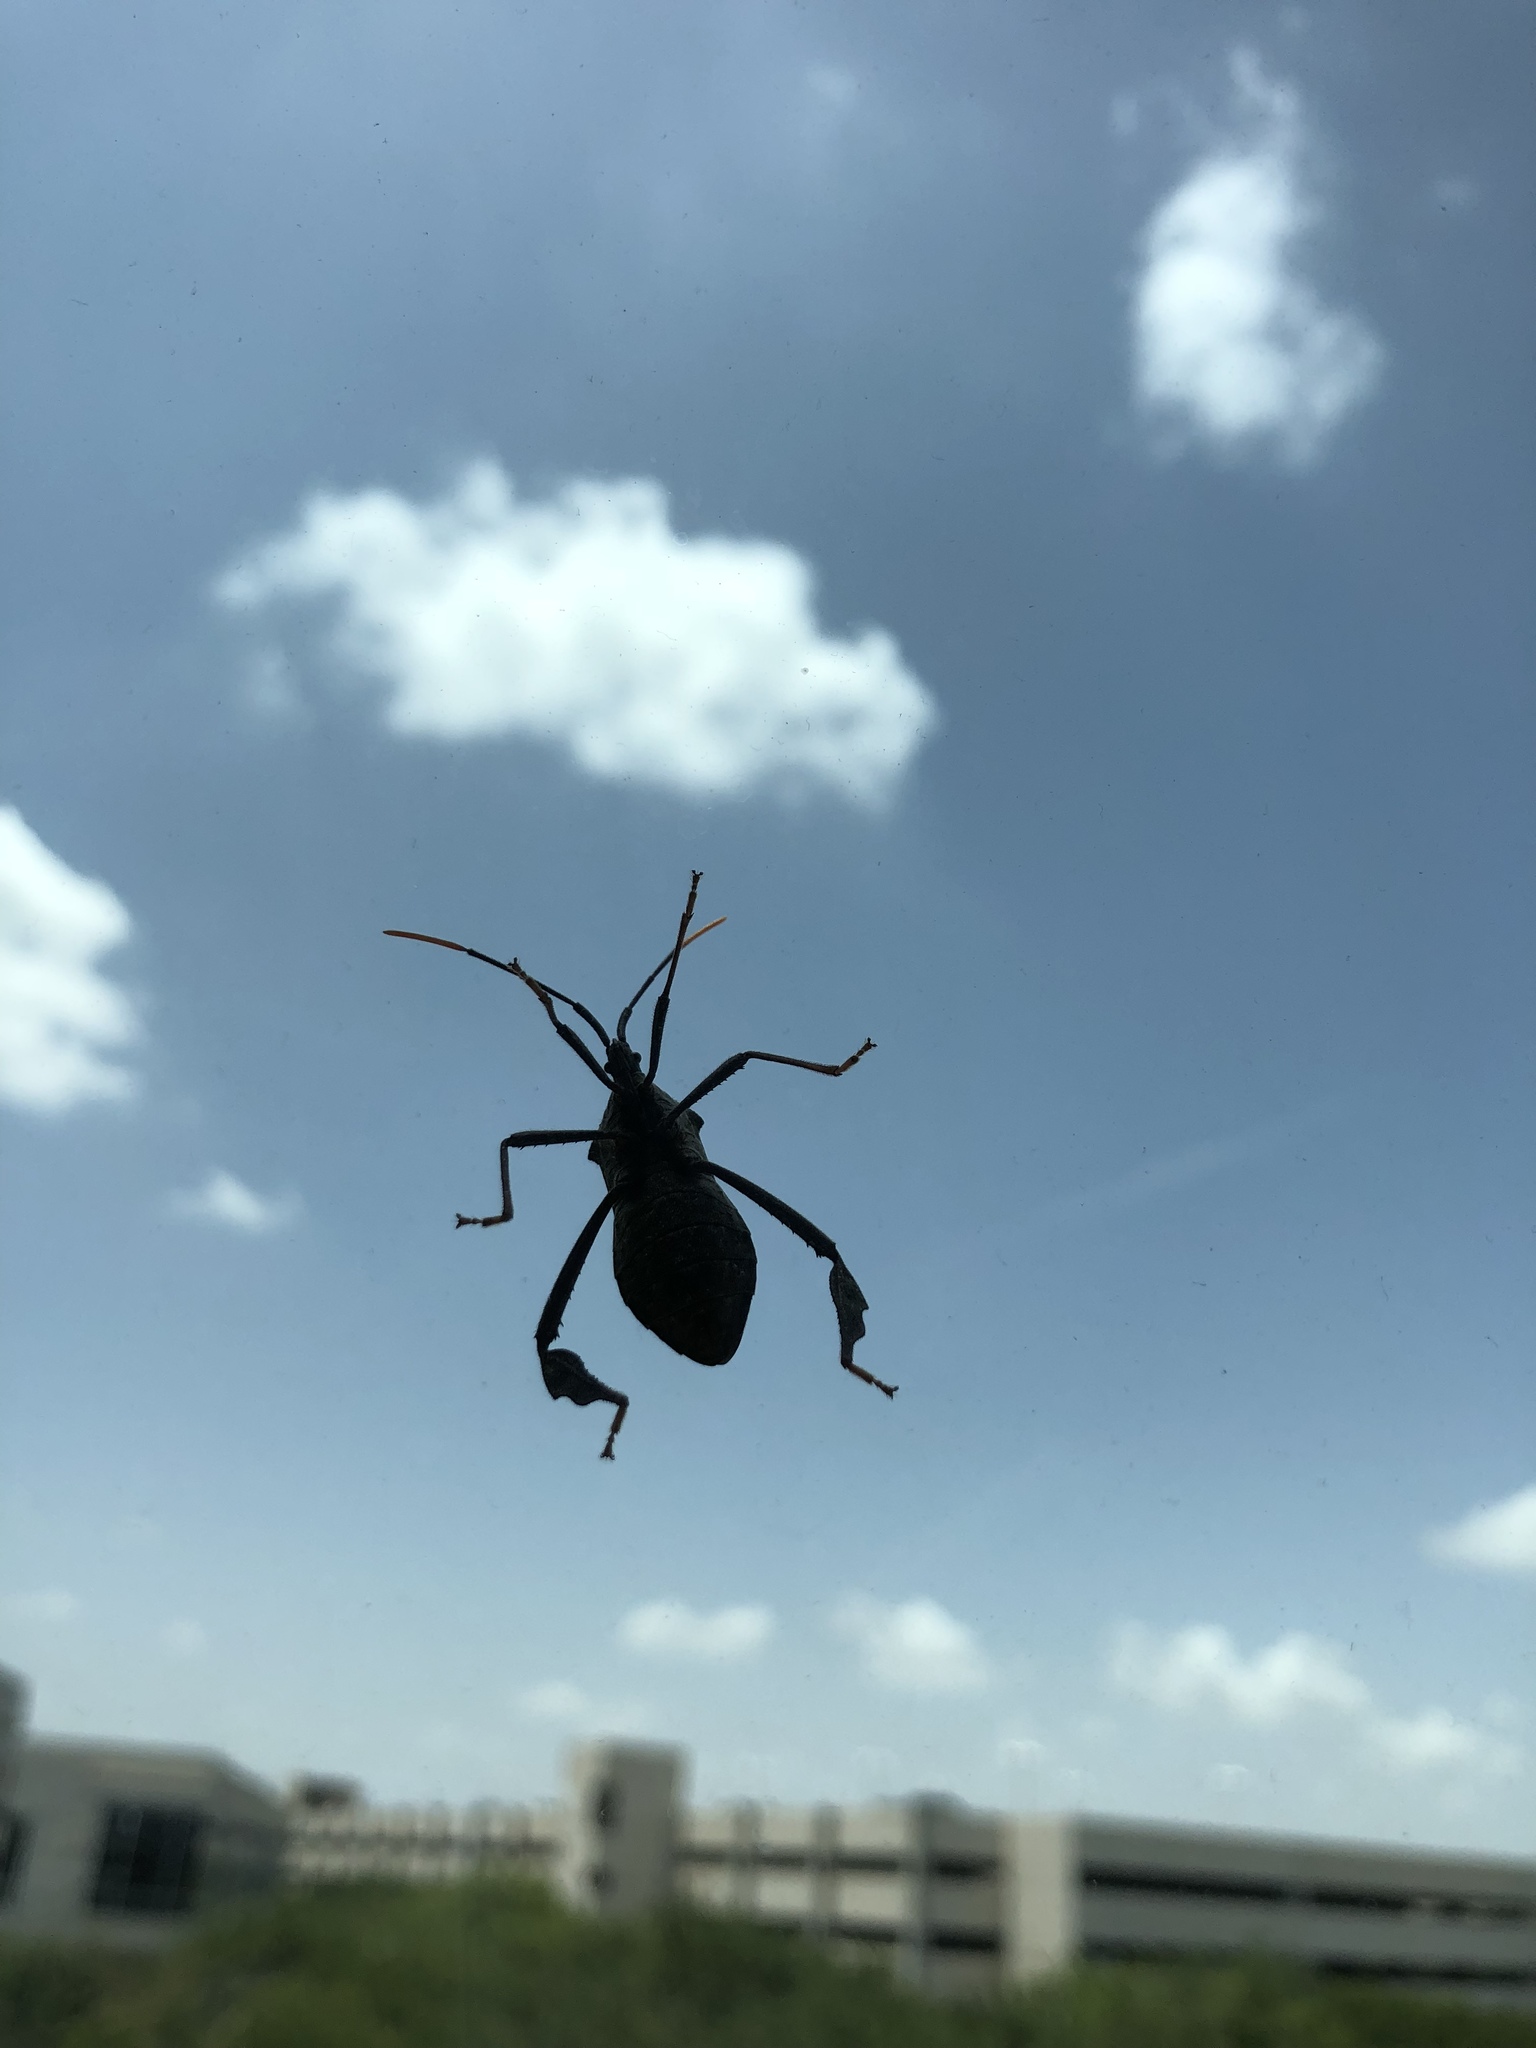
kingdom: Animalia
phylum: Arthropoda
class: Insecta
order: Hemiptera
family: Coreidae
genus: Acanthocephala
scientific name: Acanthocephala terminalis
